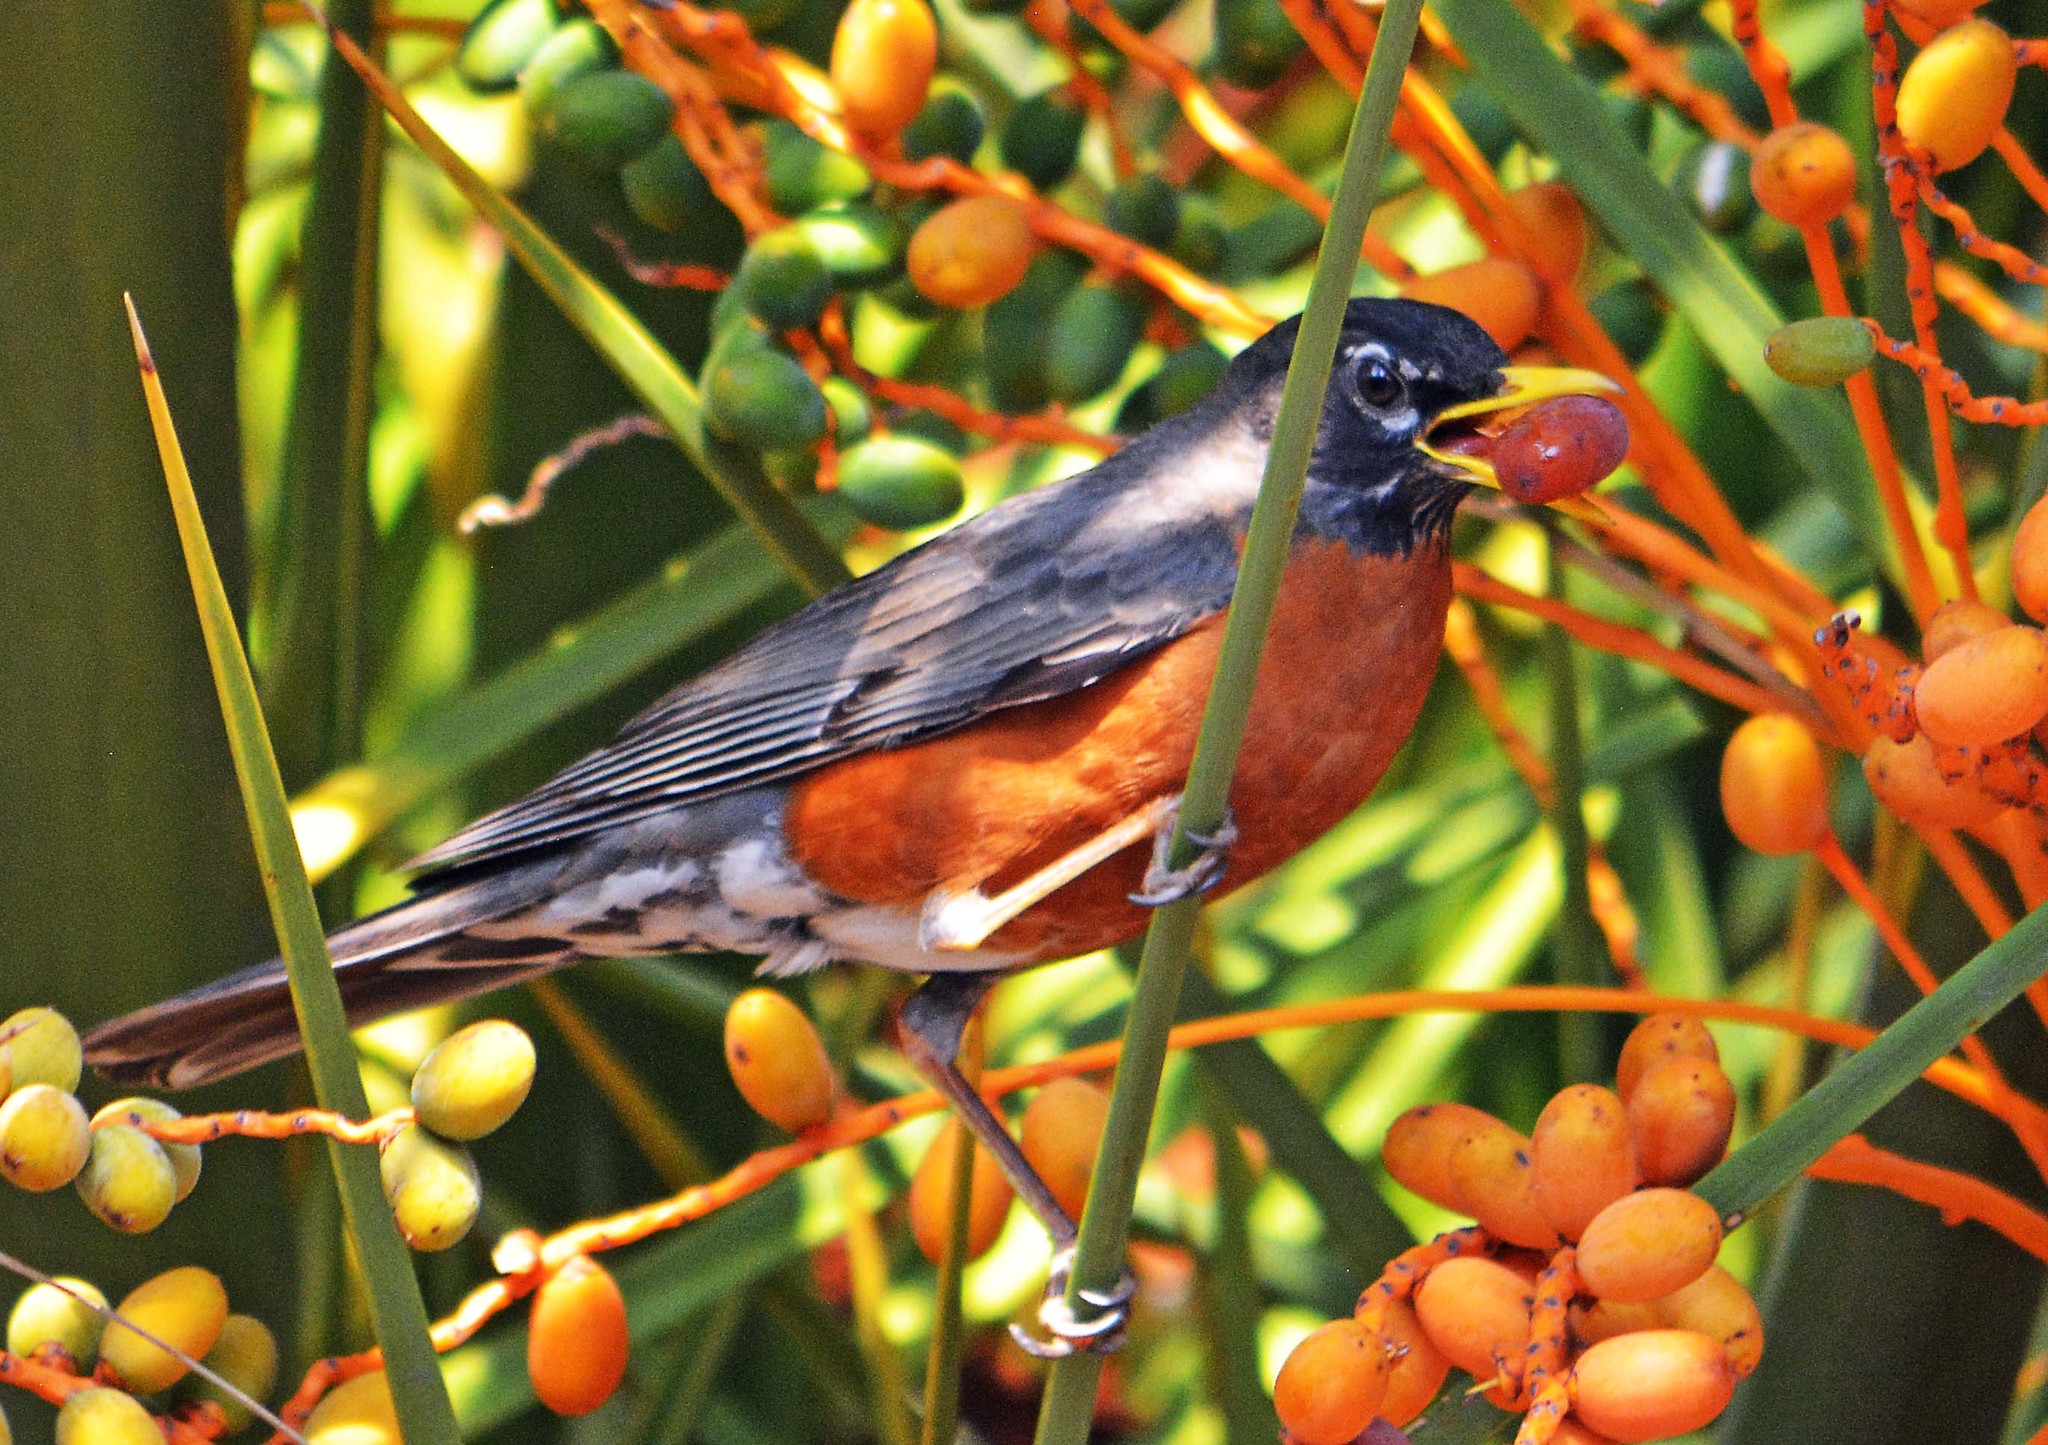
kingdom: Animalia
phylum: Chordata
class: Aves
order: Passeriformes
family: Turdidae
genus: Turdus
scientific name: Turdus migratorius
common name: American robin
